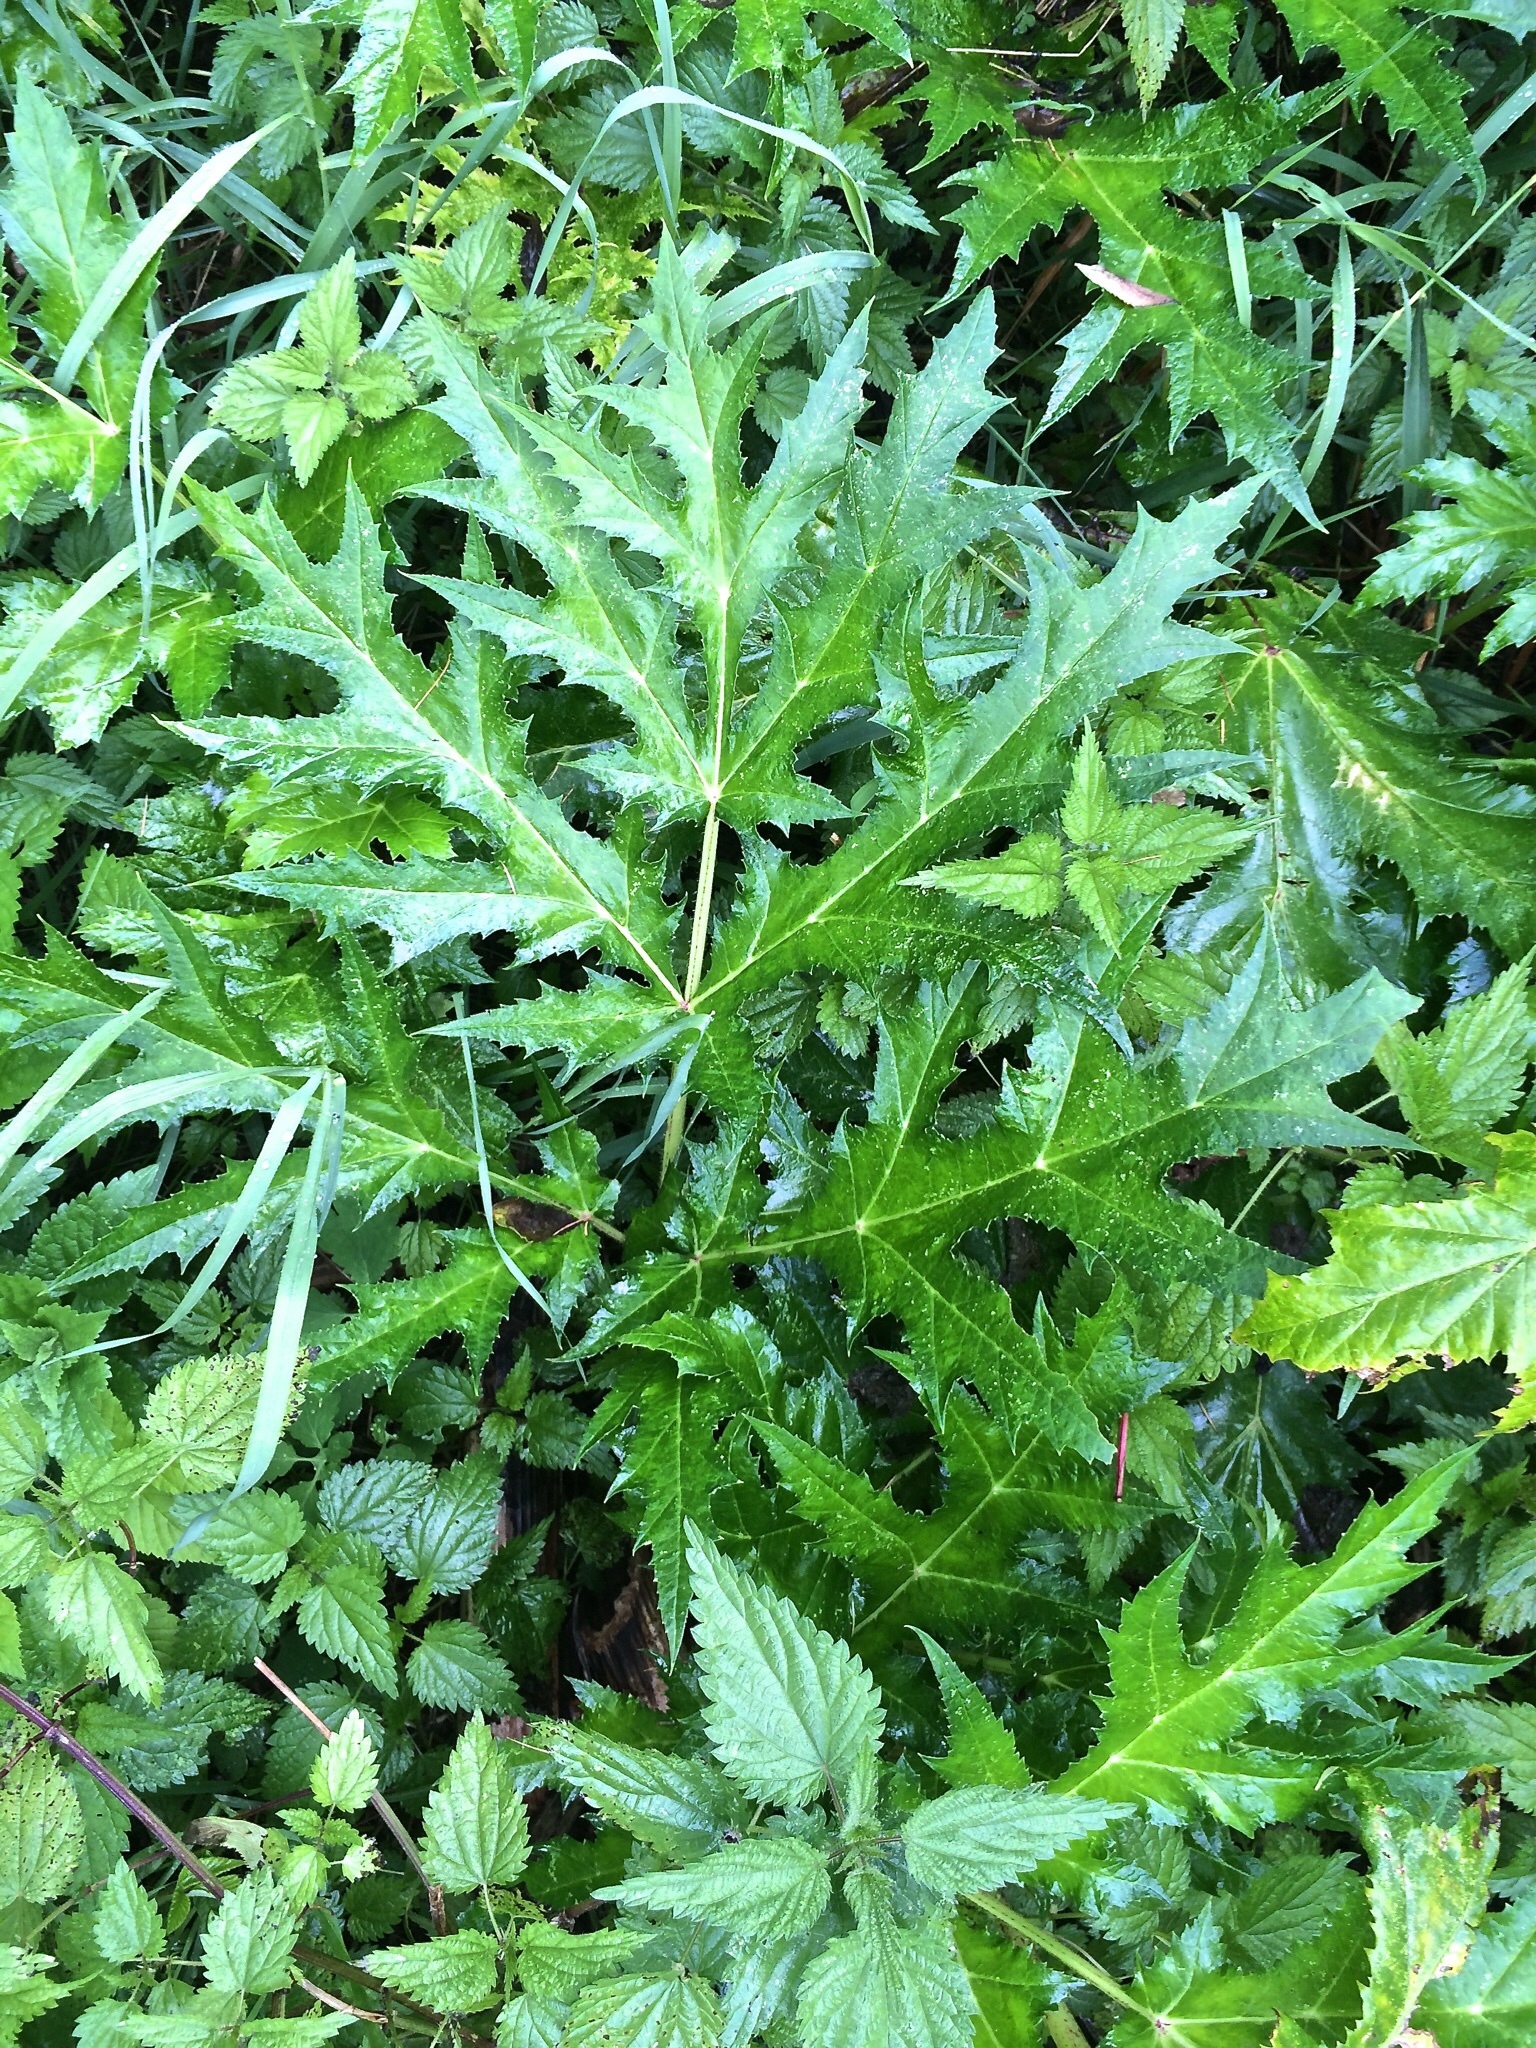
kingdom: Plantae
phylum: Tracheophyta
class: Magnoliopsida
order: Apiales
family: Apiaceae
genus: Heracleum
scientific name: Heracleum mantegazzianum
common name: Giant hogweed
